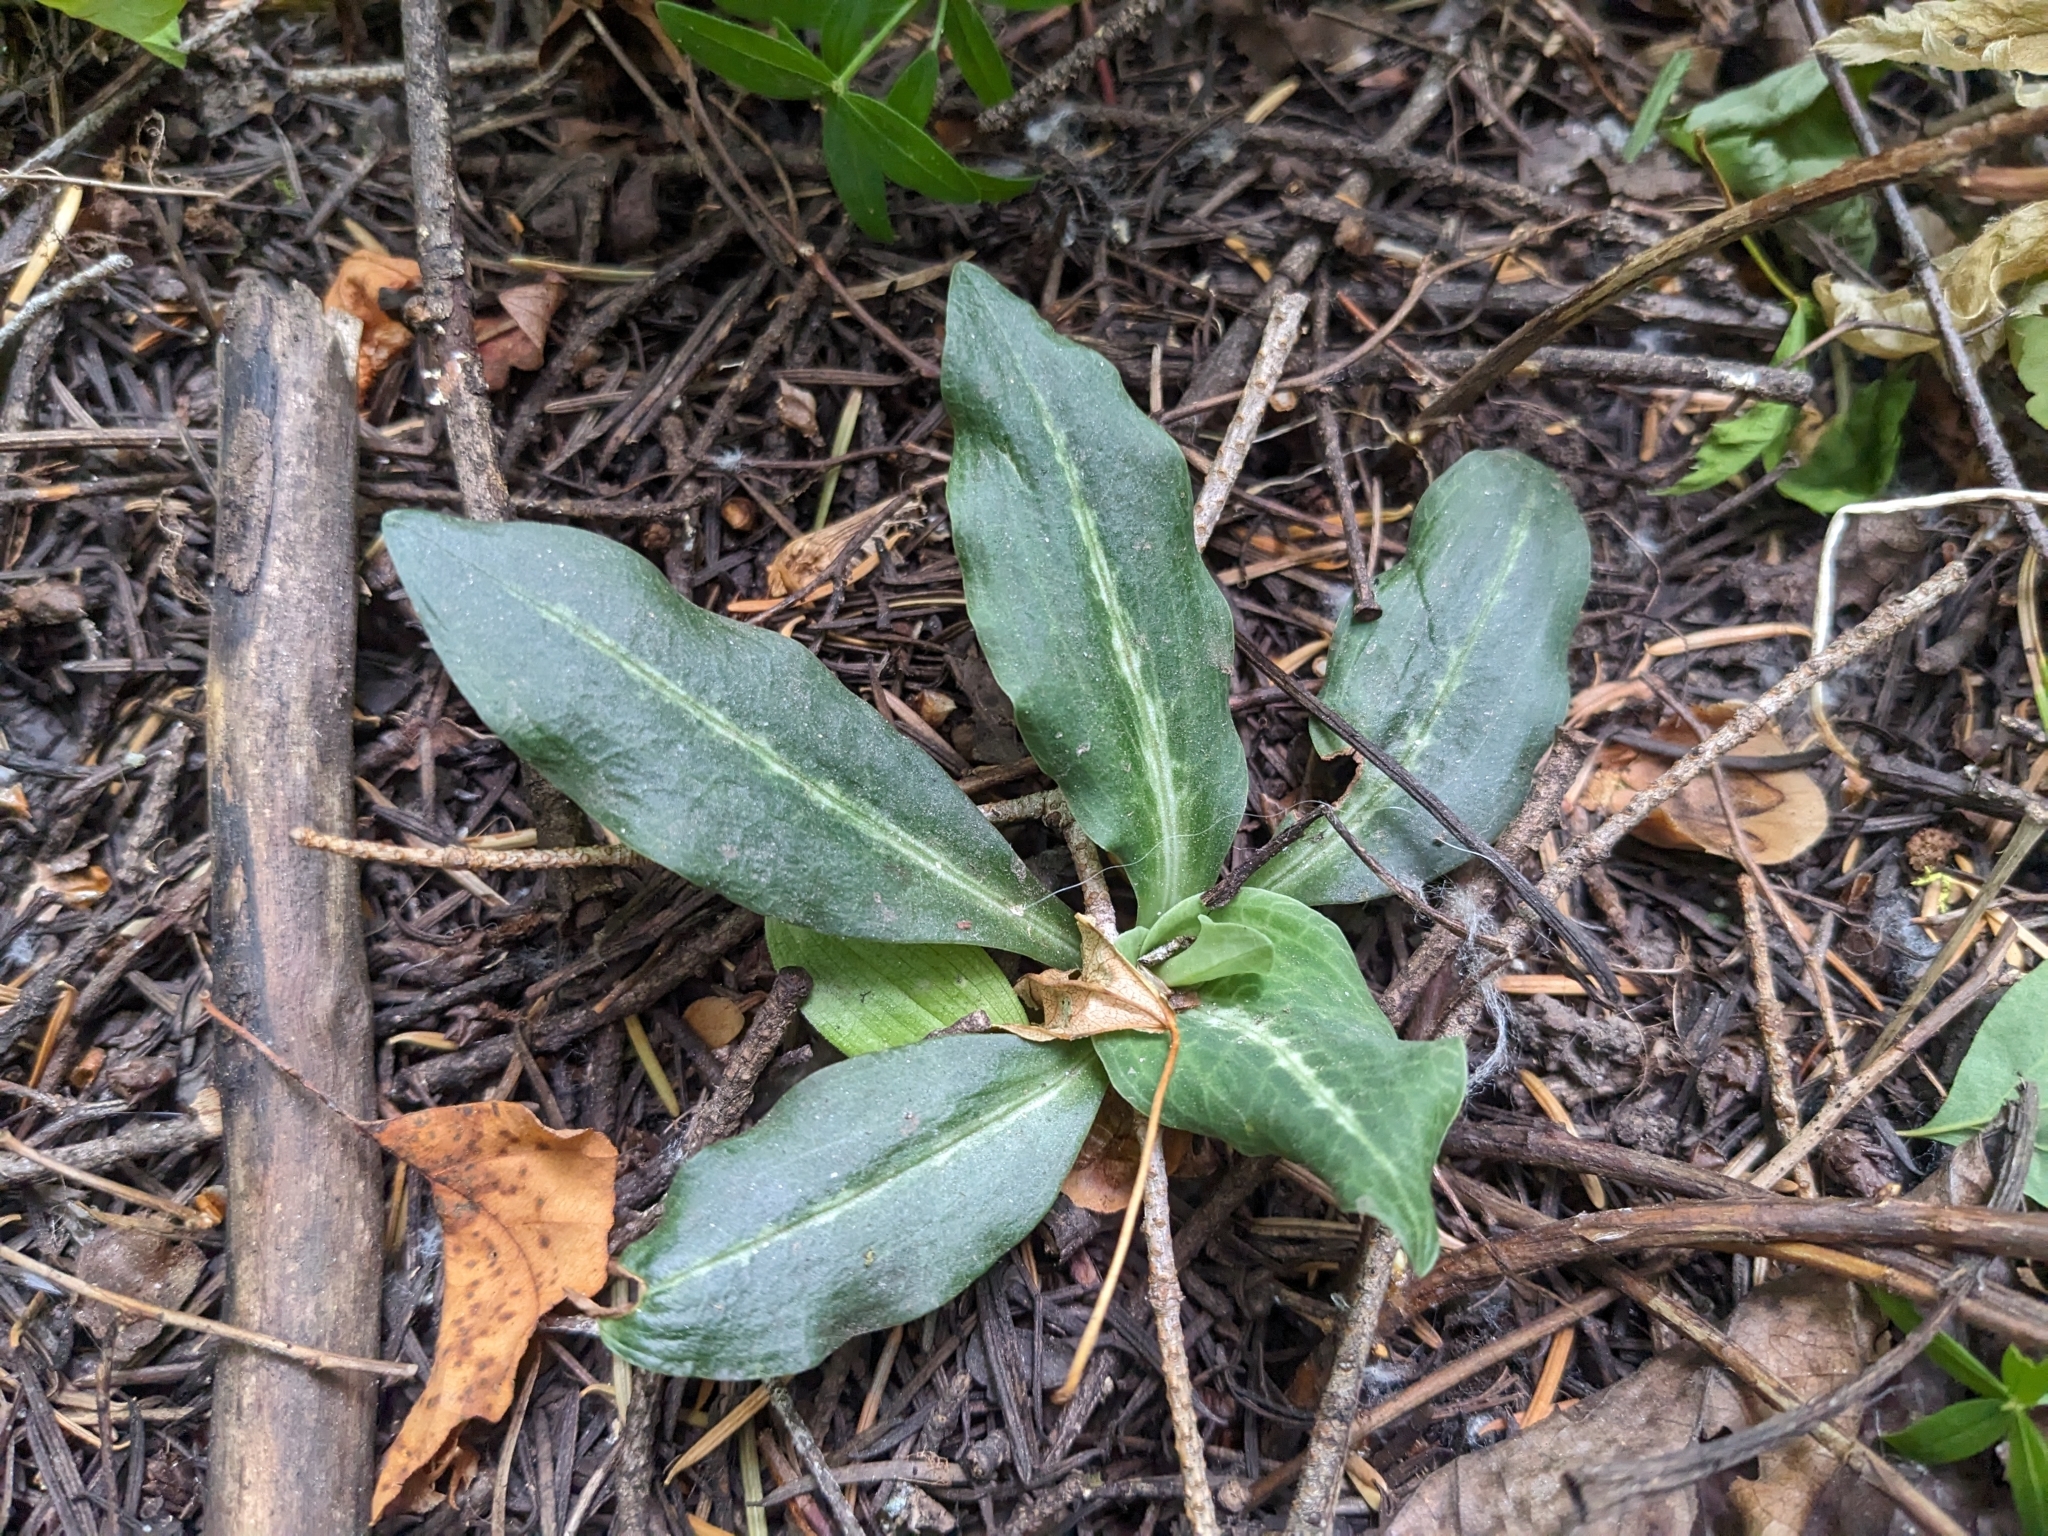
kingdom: Plantae
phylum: Tracheophyta
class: Liliopsida
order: Asparagales
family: Orchidaceae
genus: Goodyera
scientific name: Goodyera oblongifolia
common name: Giant rattlesnake-plantain
